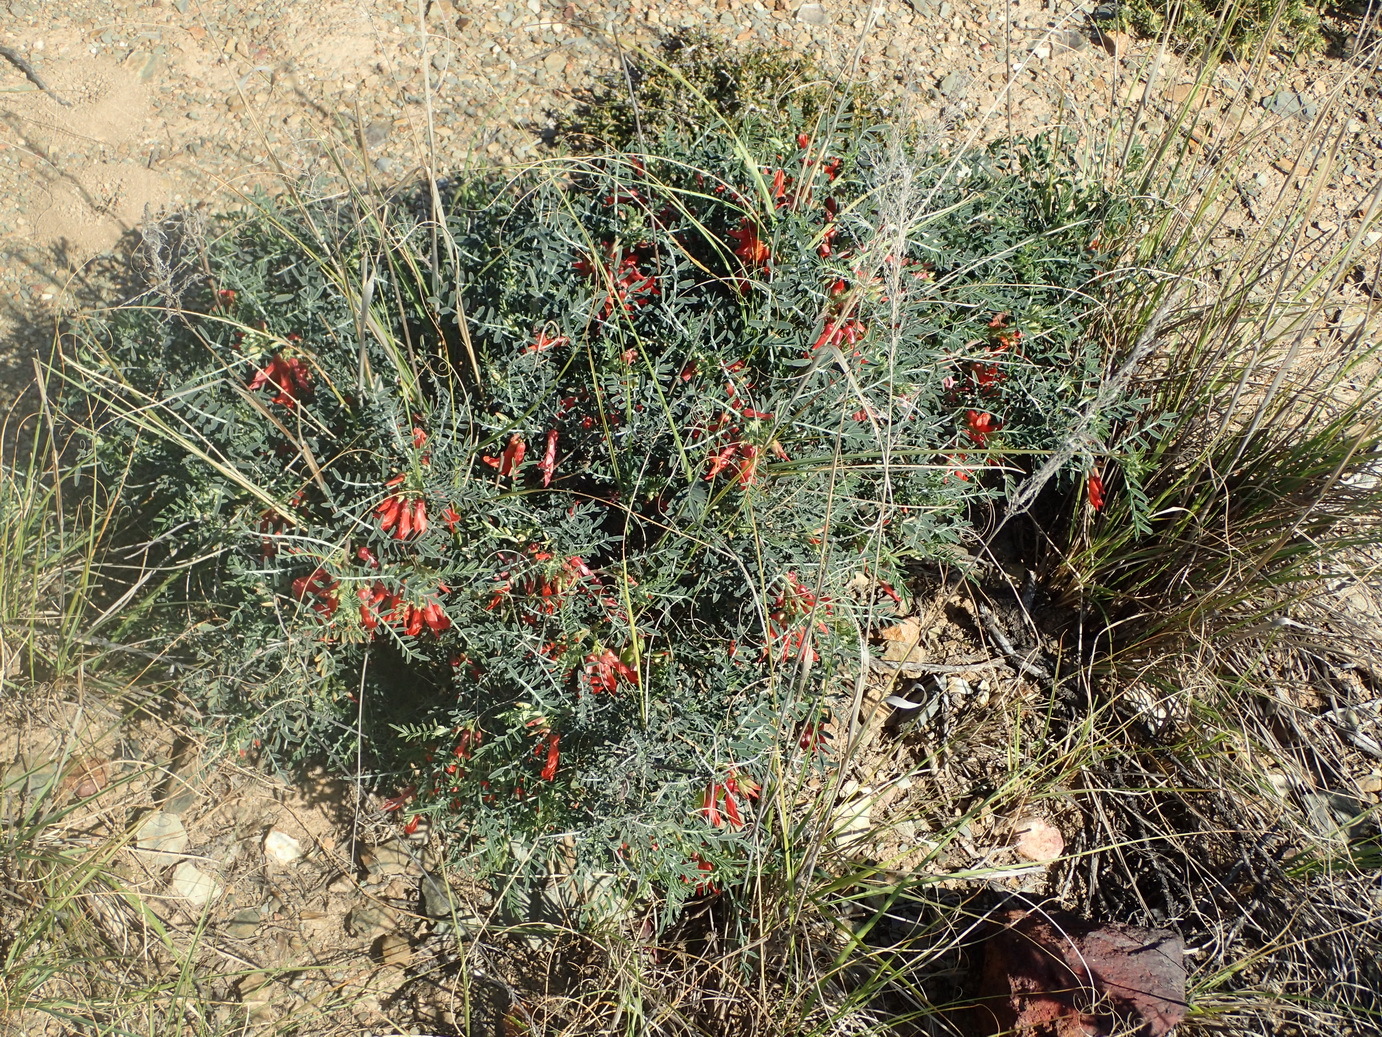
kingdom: Plantae
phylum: Tracheophyta
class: Magnoliopsida
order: Fabales
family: Fabaceae
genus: Lessertia
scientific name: Lessertia frutescens
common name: Balloon-pea
